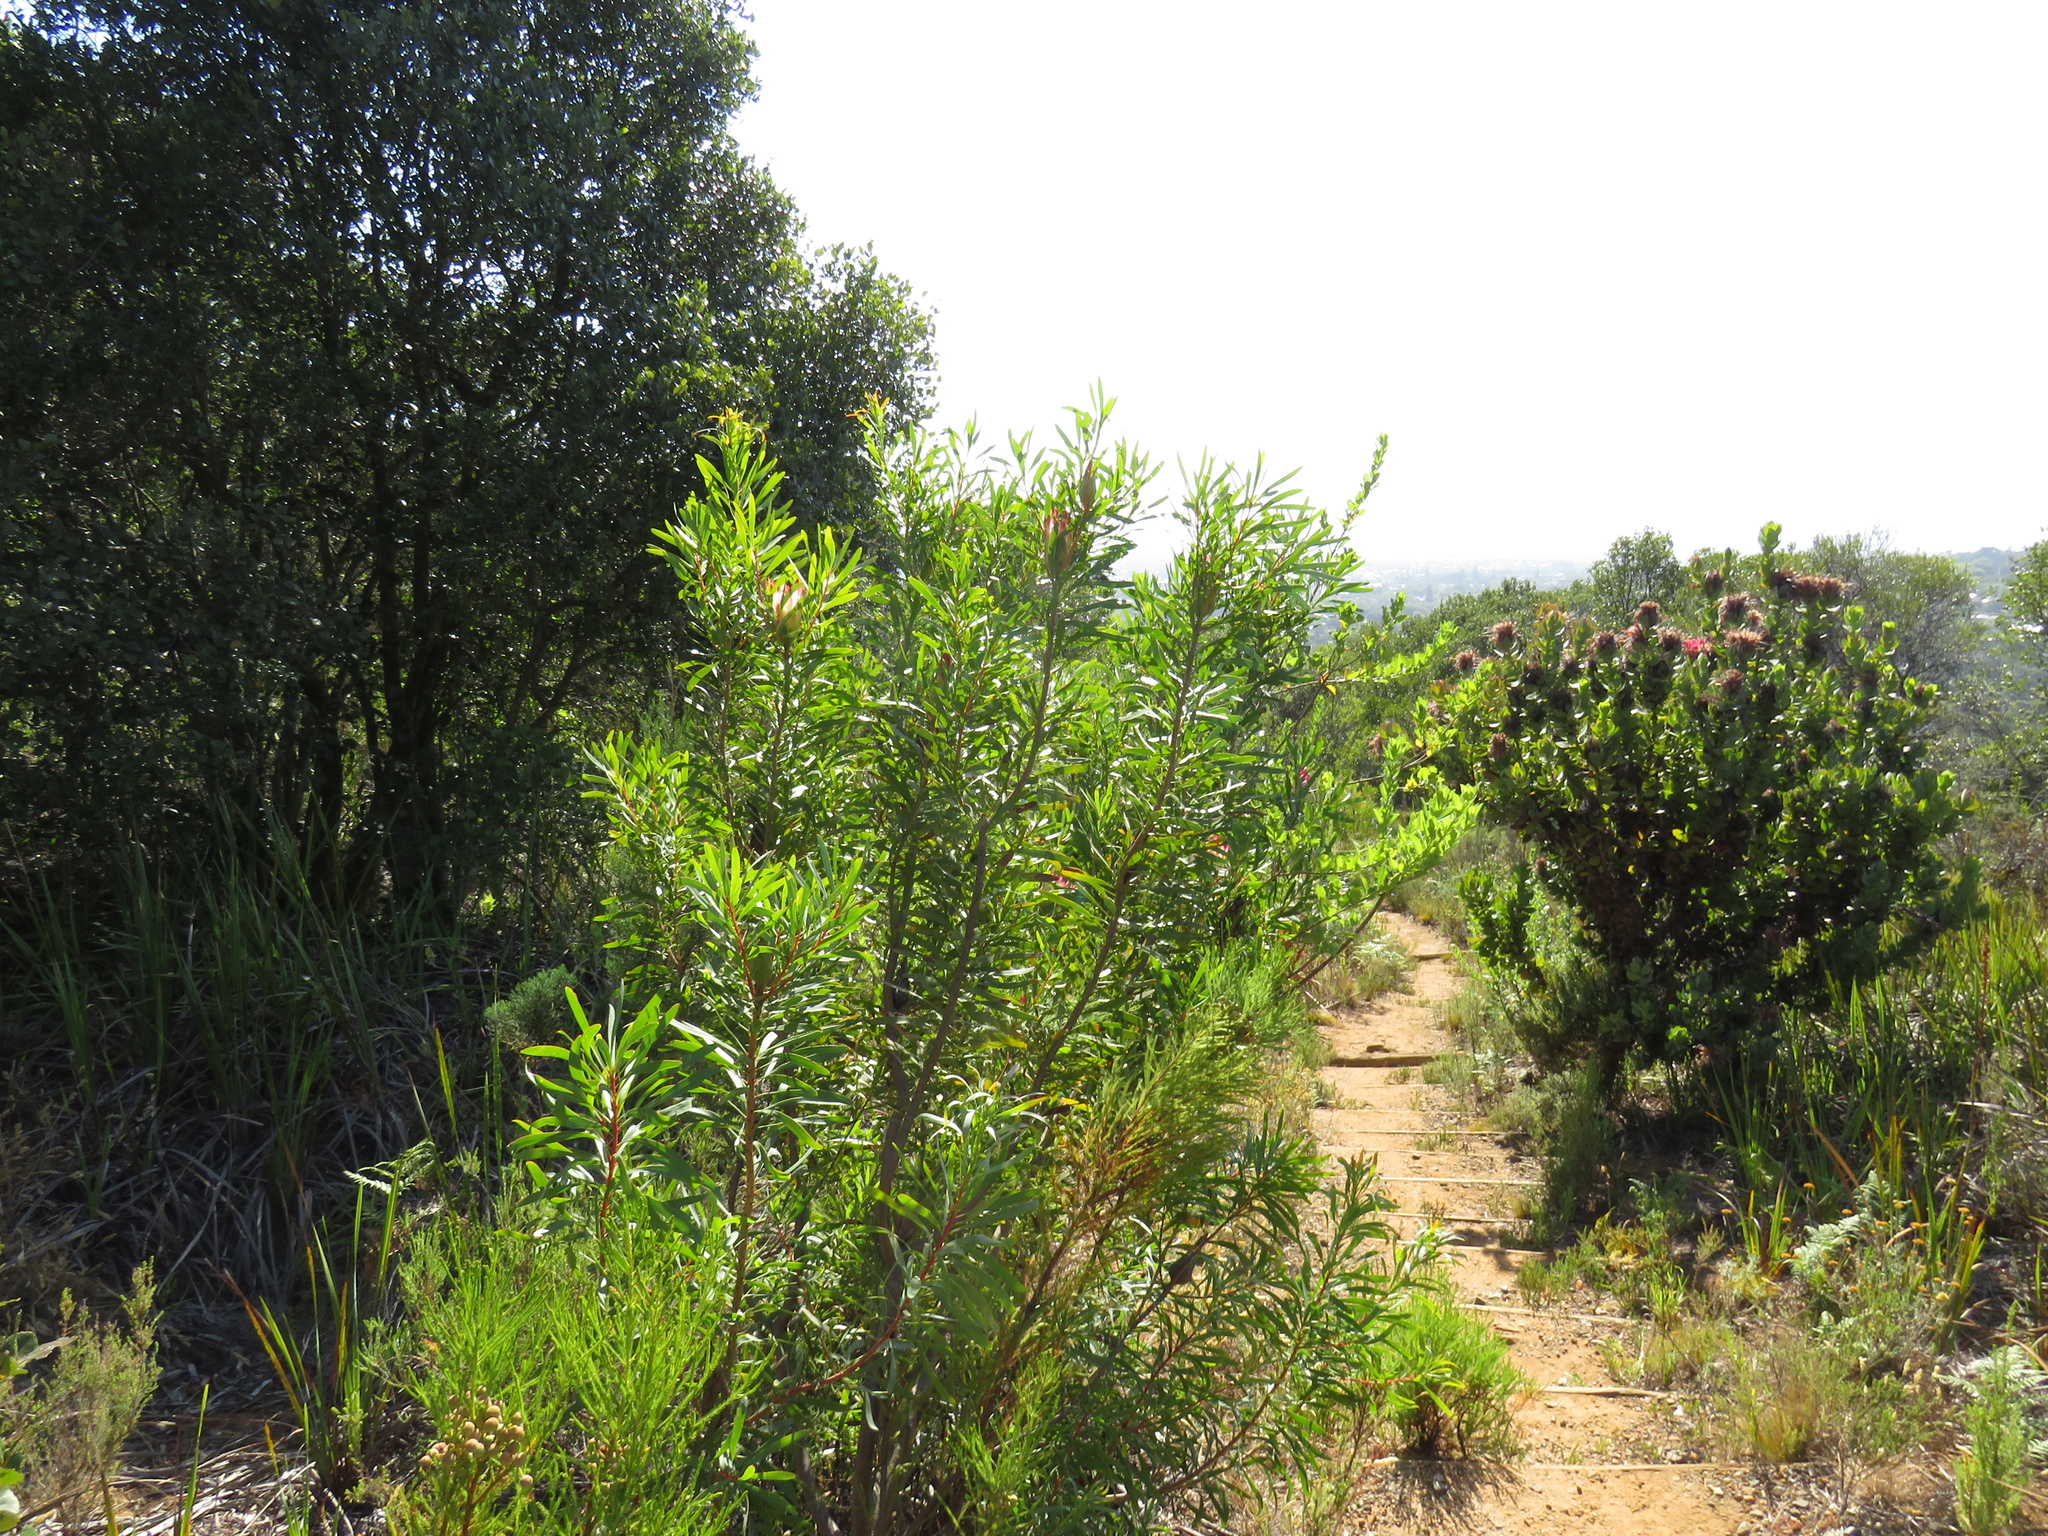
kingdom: Plantae
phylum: Tracheophyta
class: Magnoliopsida
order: Proteales
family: Proteaceae
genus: Protea
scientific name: Protea repens
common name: Sugarbush
